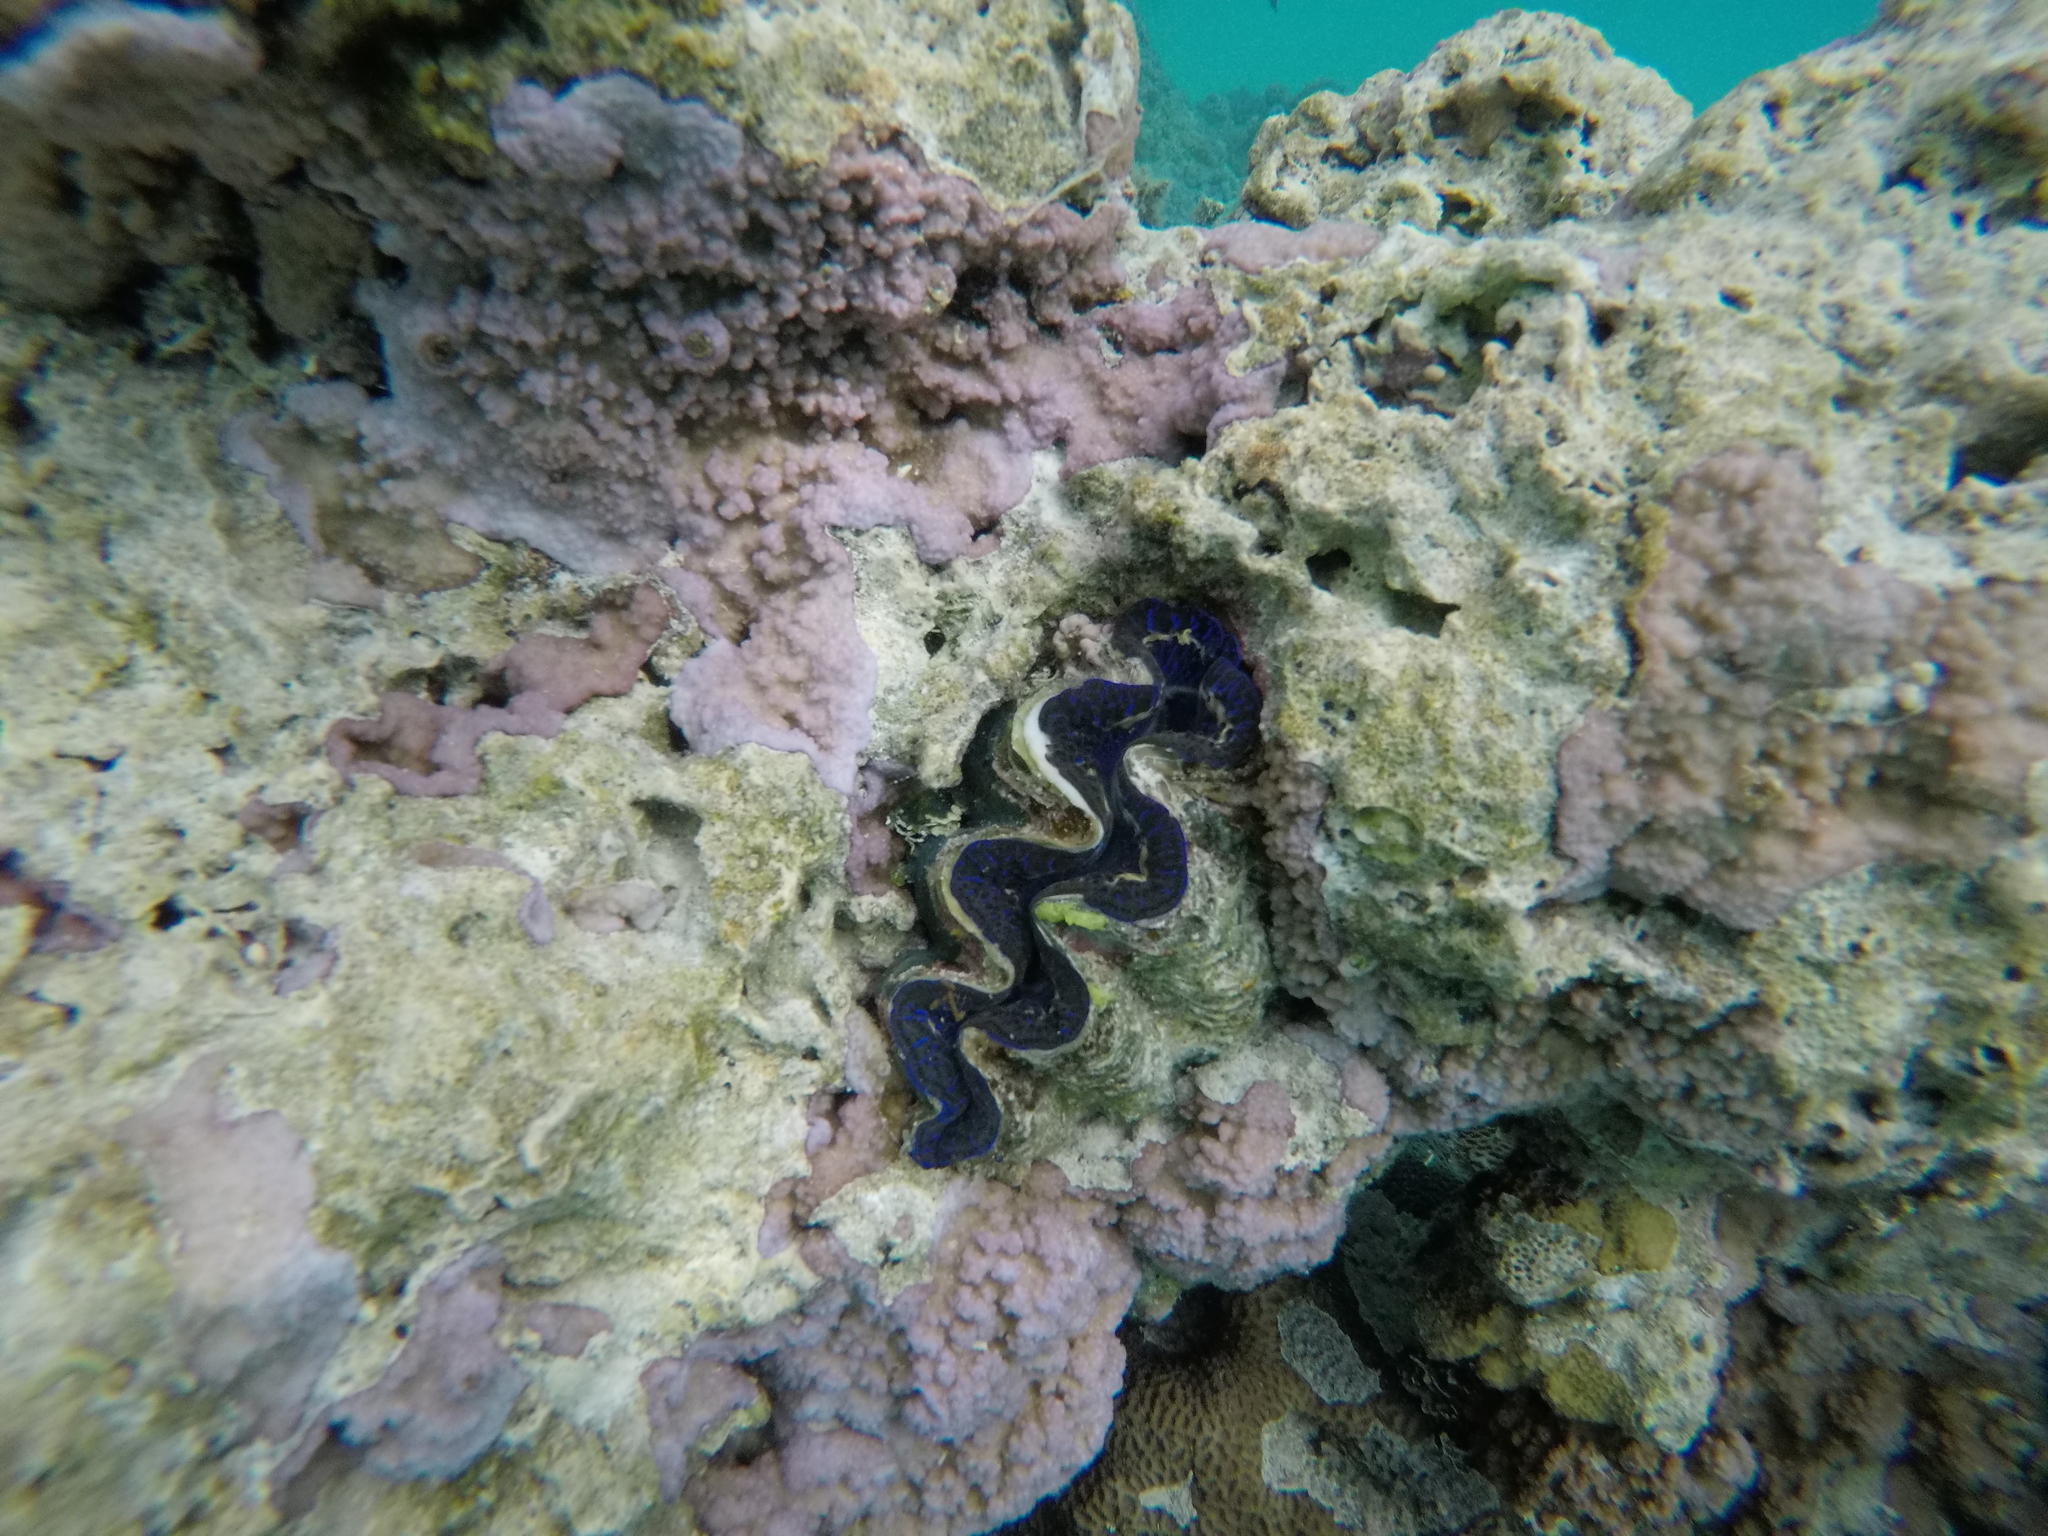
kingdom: Animalia
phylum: Mollusca
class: Bivalvia
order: Cardiida
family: Cardiidae
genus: Tridacna
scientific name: Tridacna maxima
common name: Small giant clam
